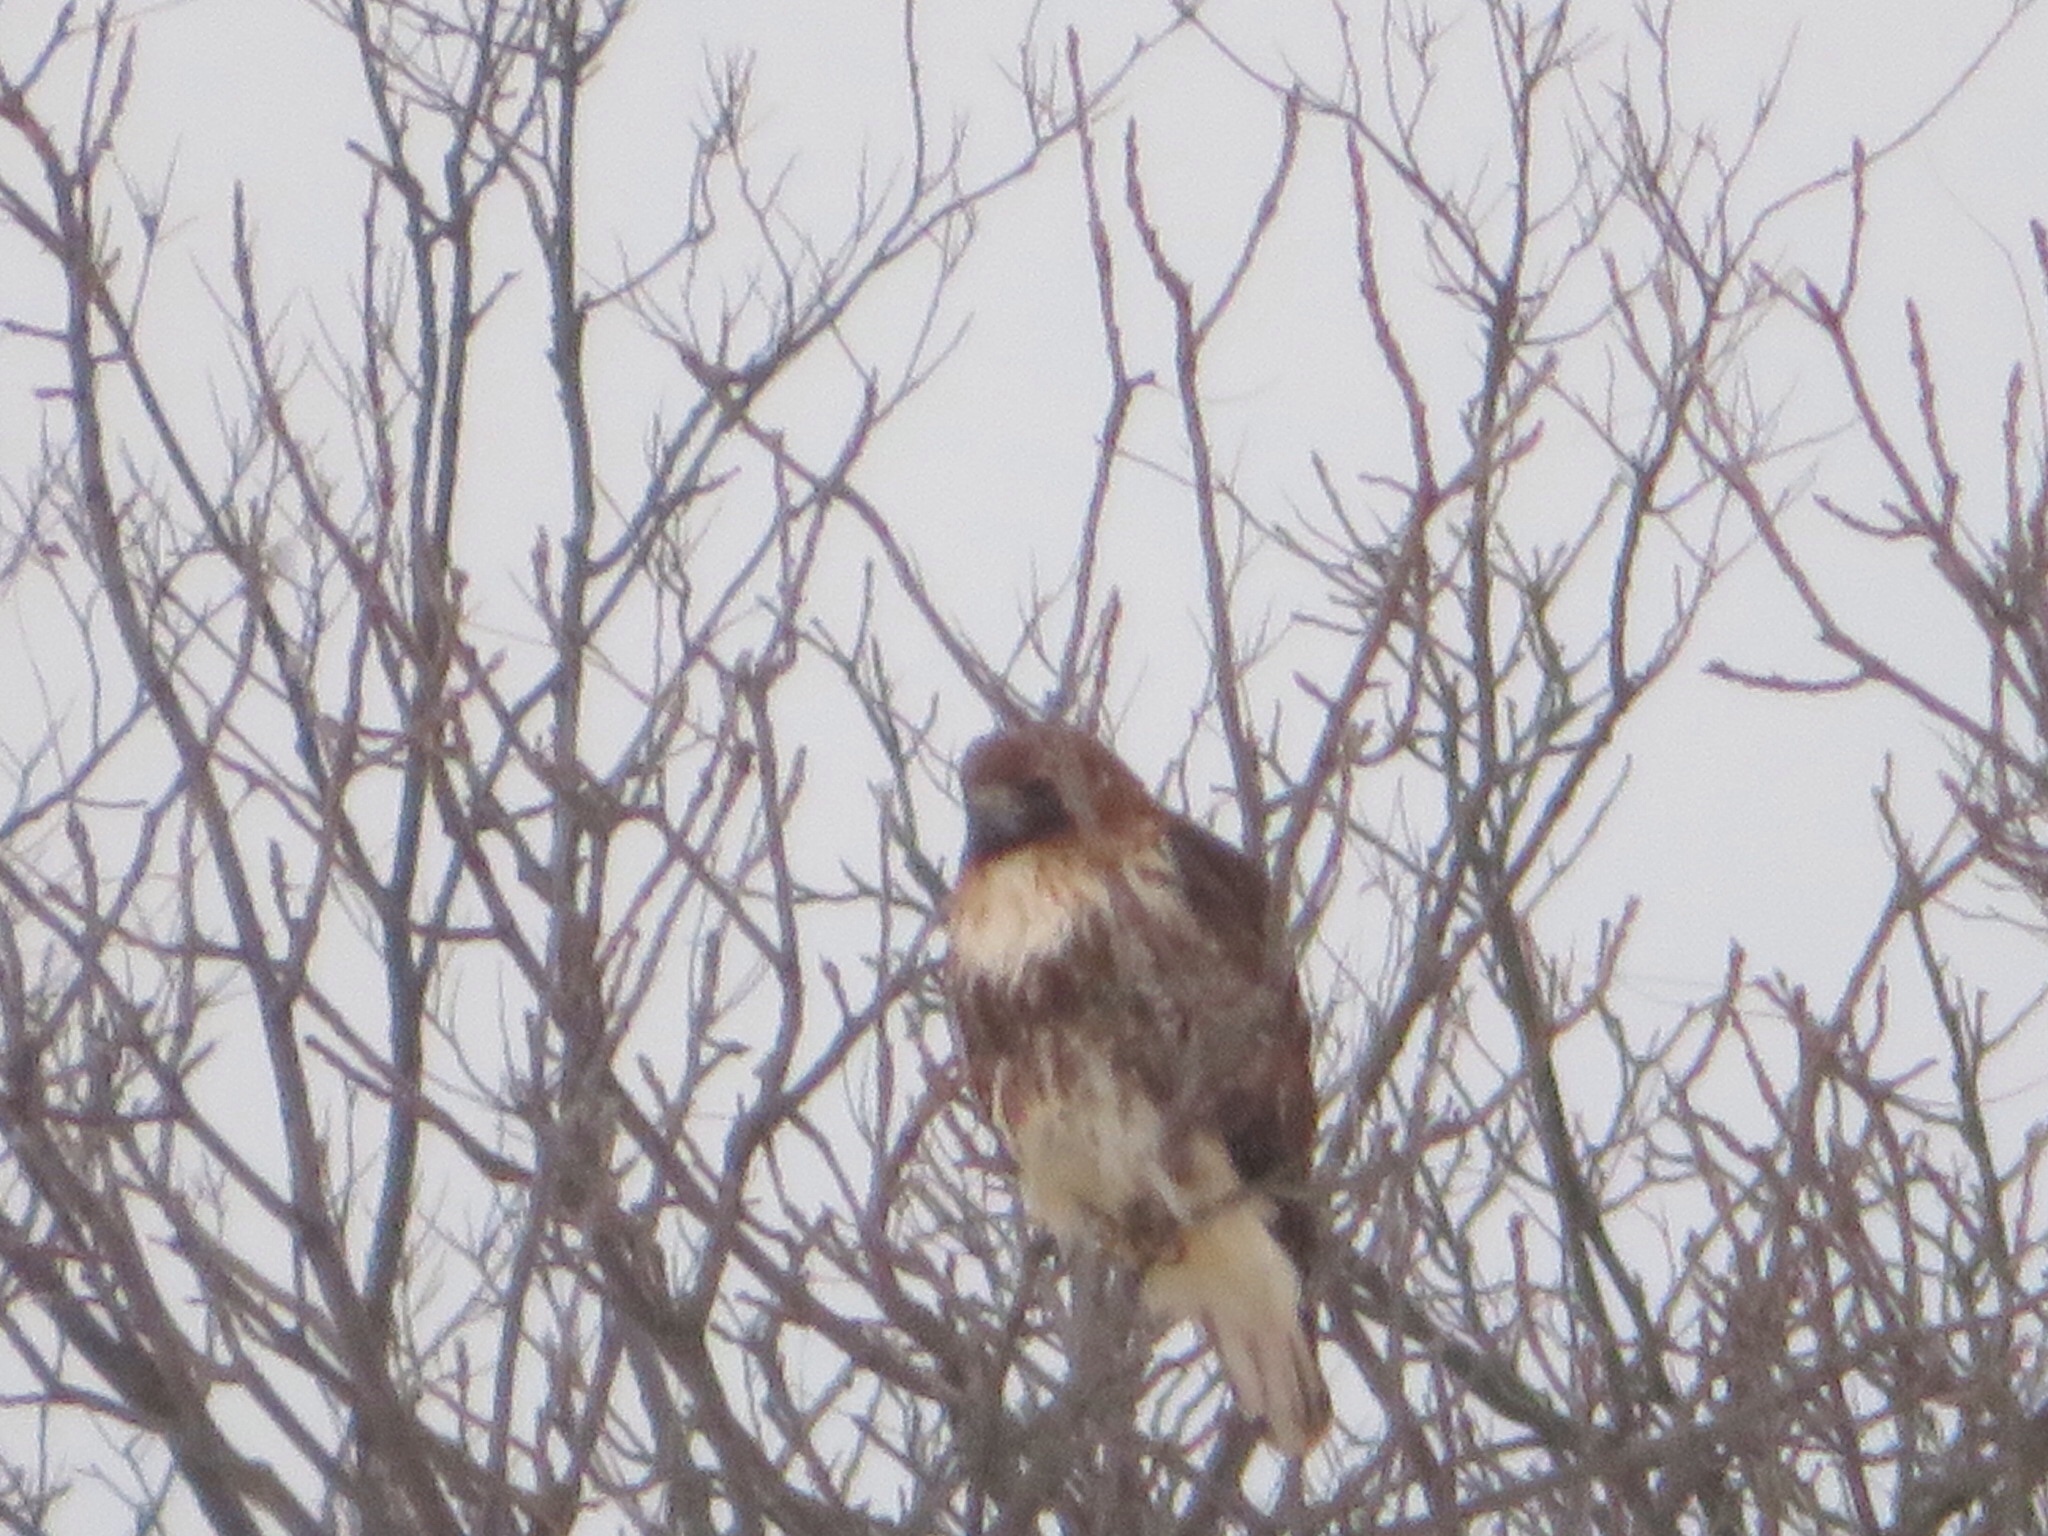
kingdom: Animalia
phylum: Chordata
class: Aves
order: Accipitriformes
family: Accipitridae
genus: Buteo
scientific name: Buteo jamaicensis
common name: Red-tailed hawk
